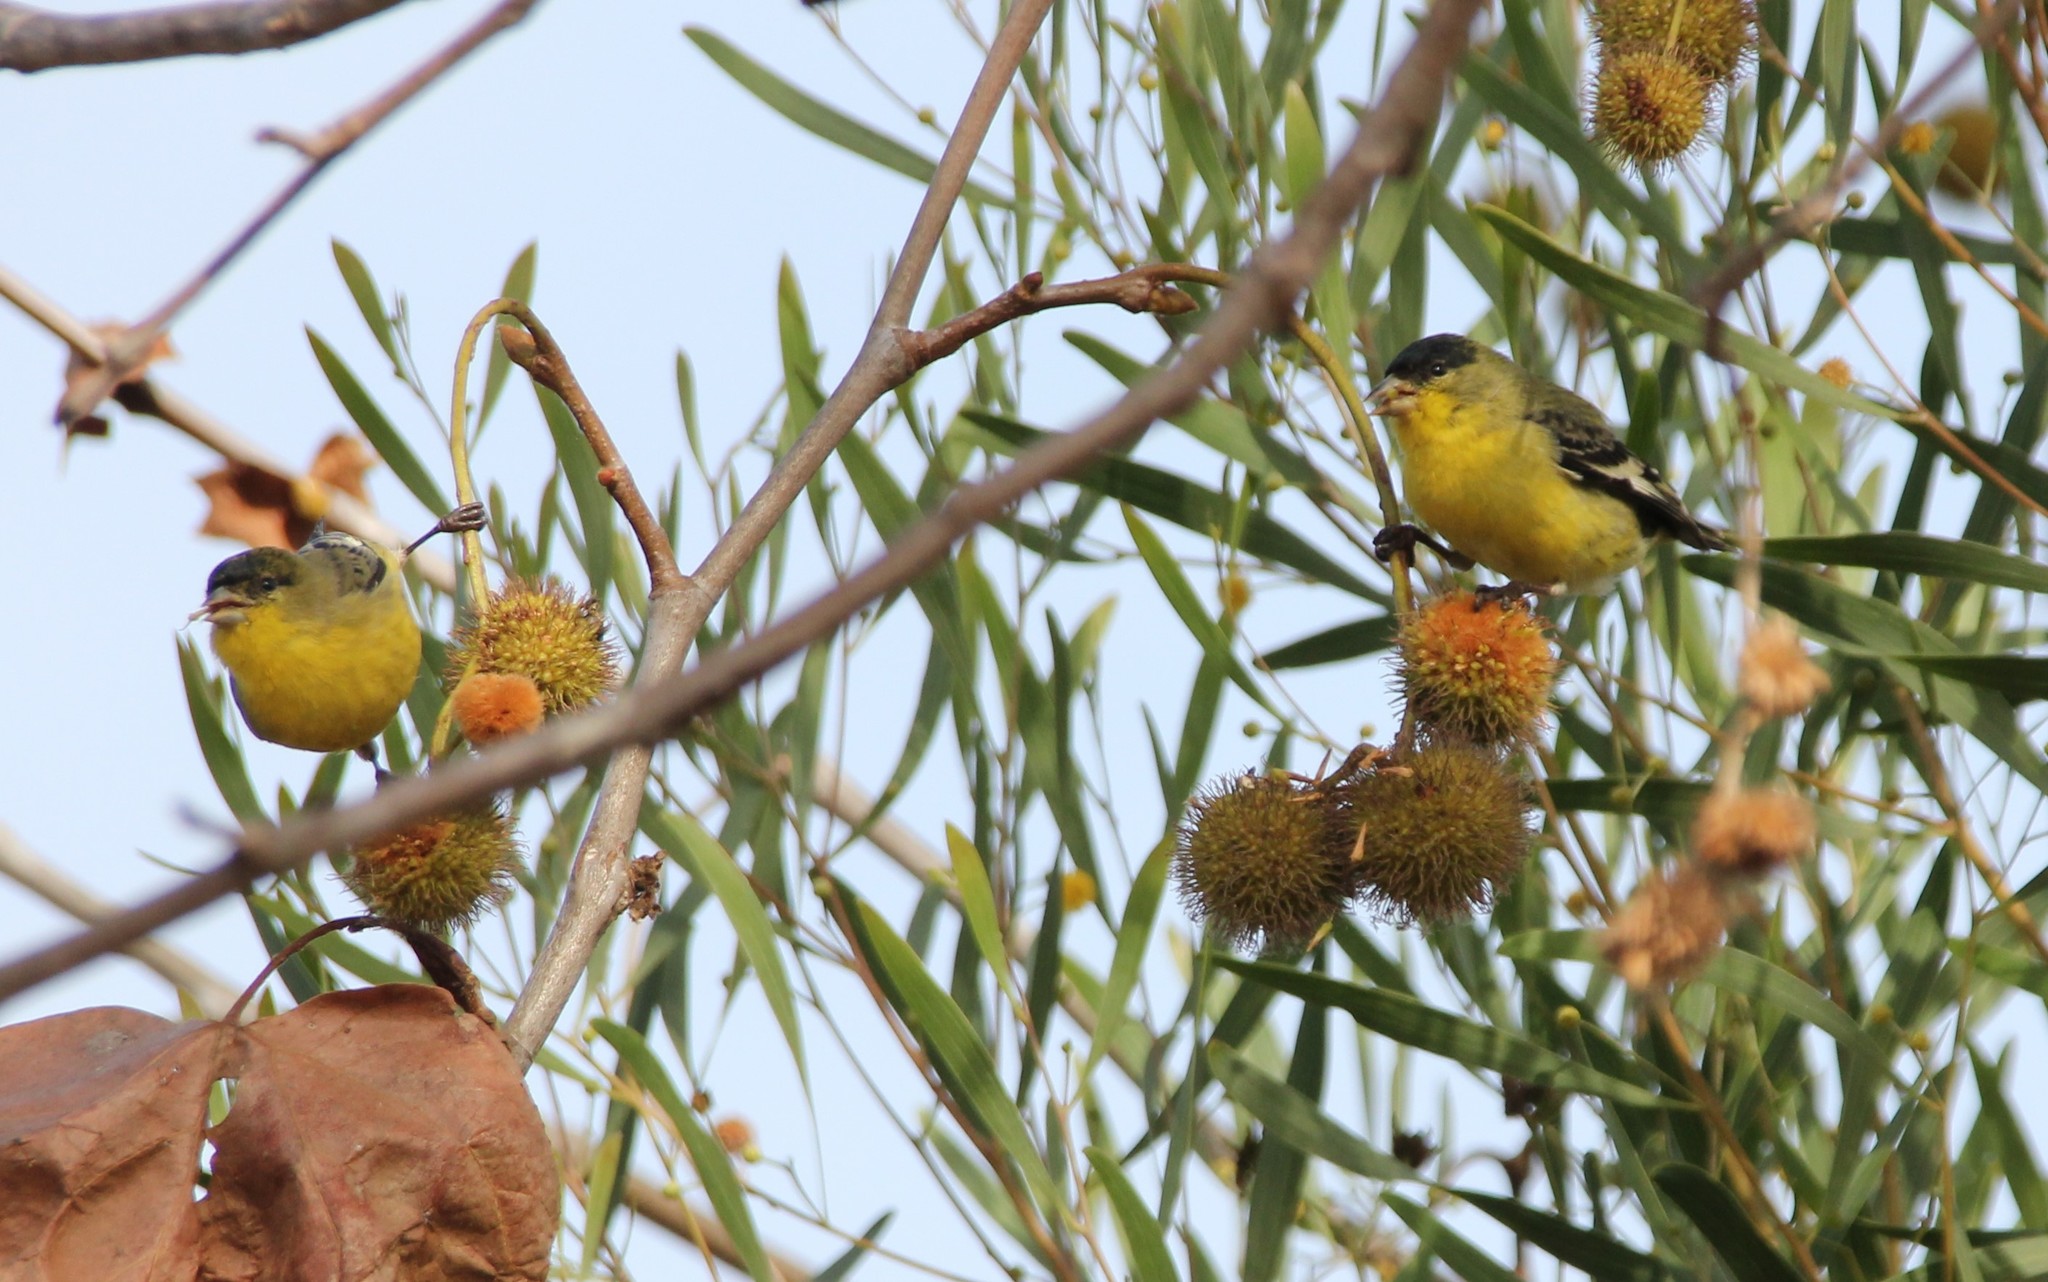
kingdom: Animalia
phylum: Chordata
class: Aves
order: Passeriformes
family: Fringillidae
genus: Spinus
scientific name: Spinus psaltria
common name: Lesser goldfinch
